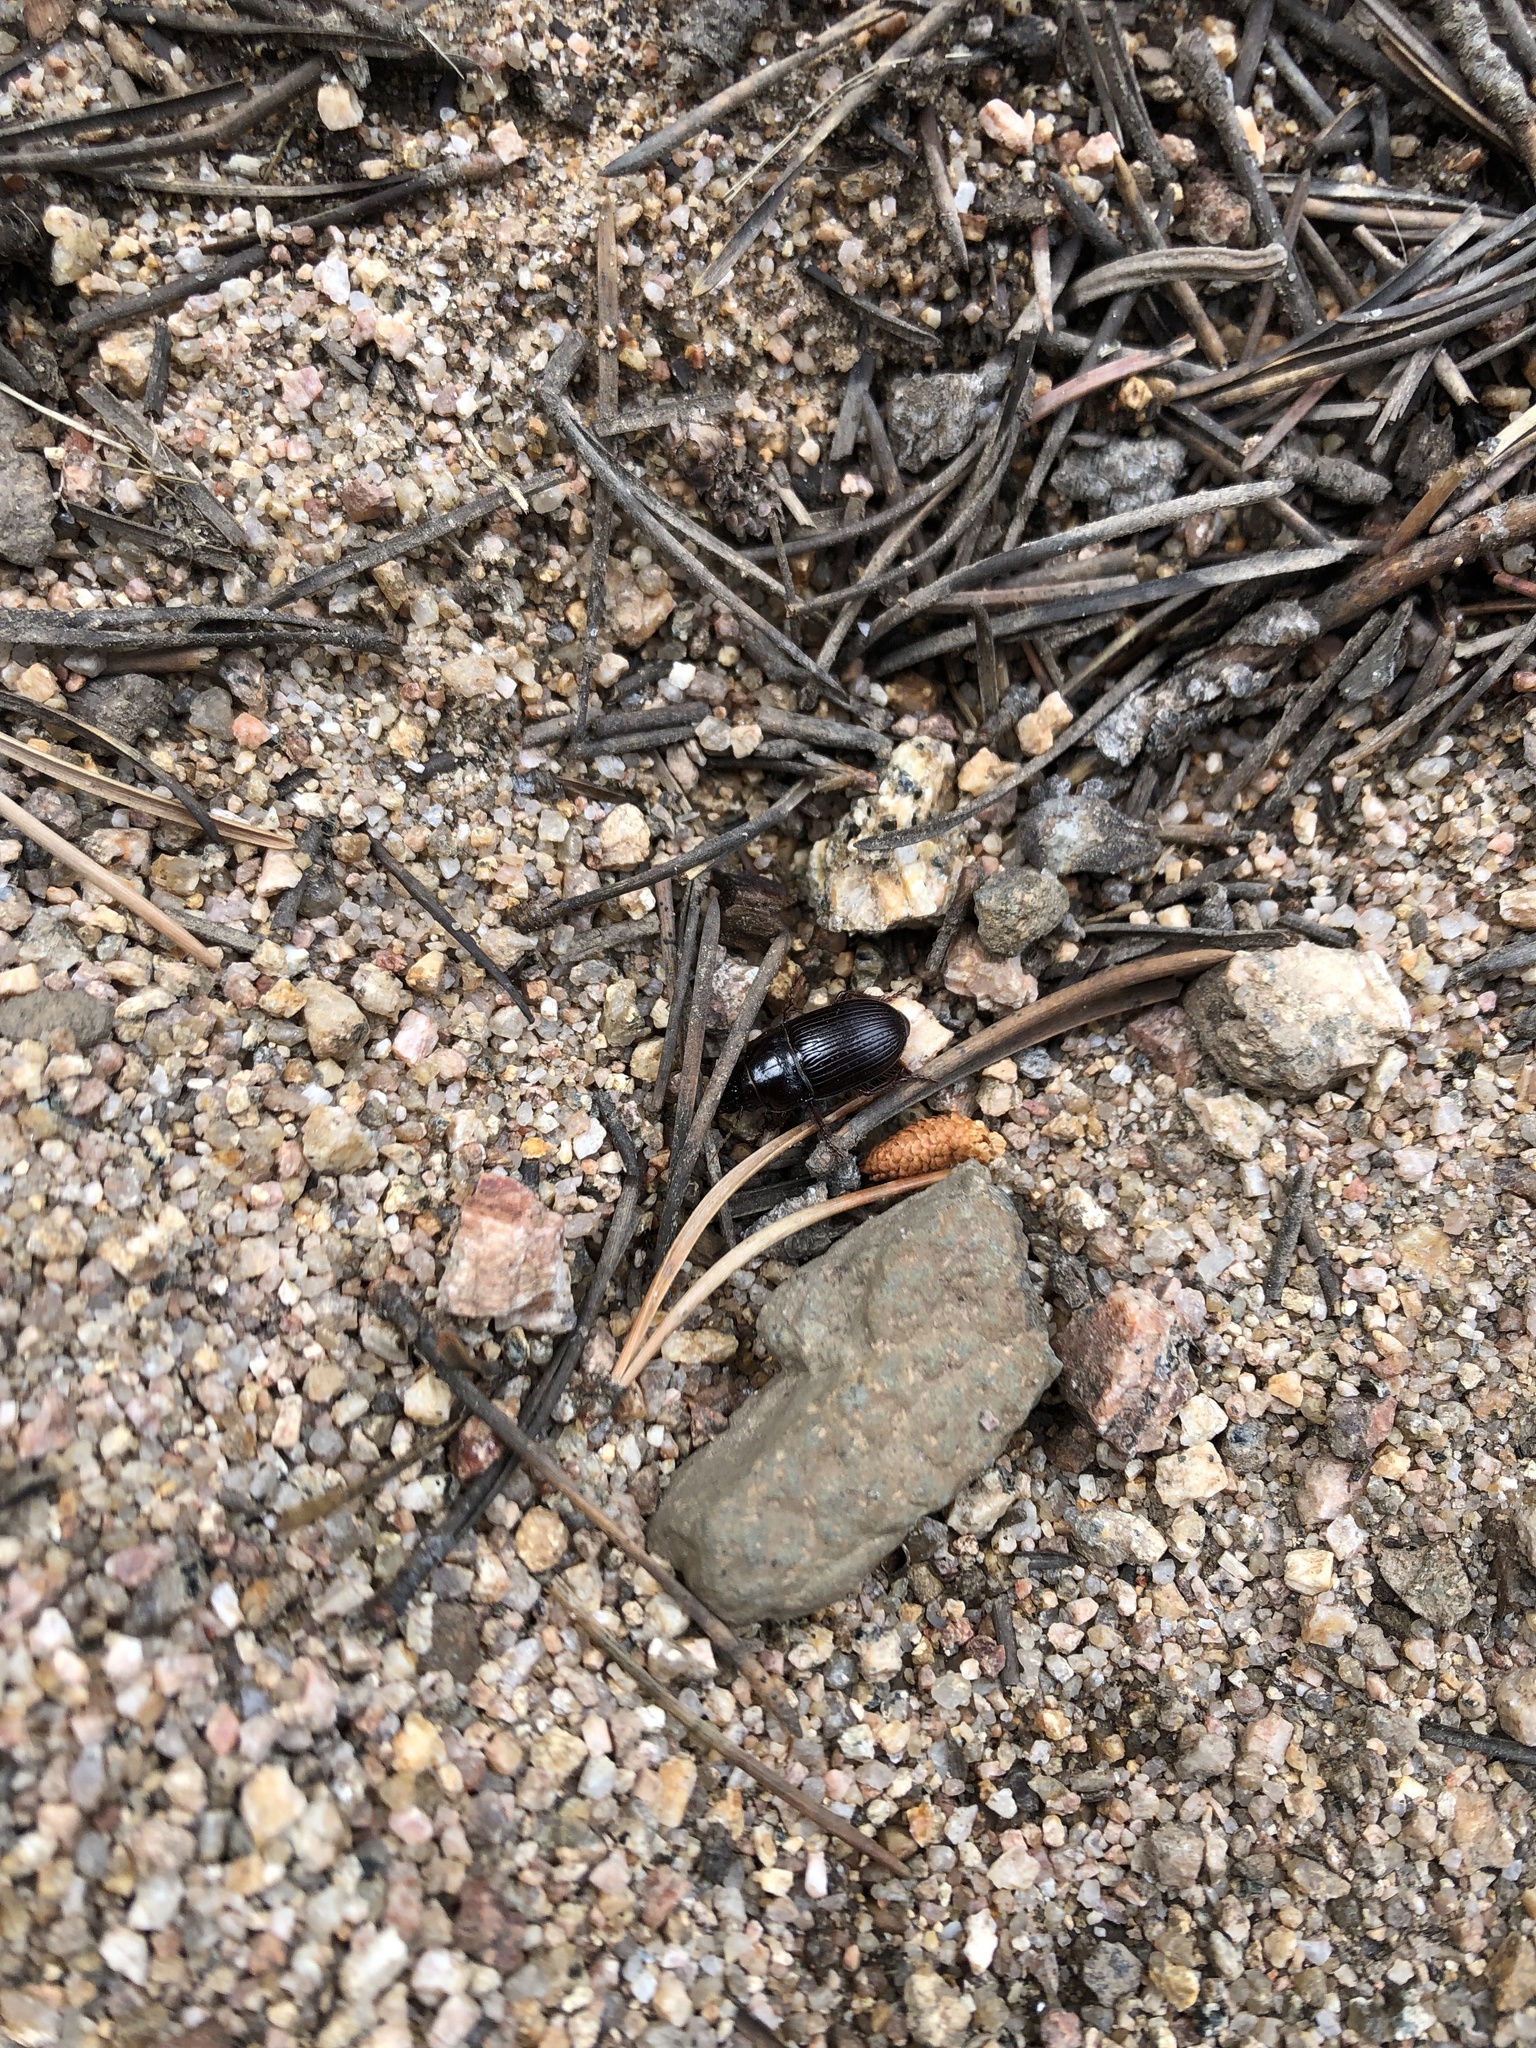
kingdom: Animalia
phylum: Arthropoda
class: Insecta
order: Coleoptera
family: Carabidae
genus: Euryderus
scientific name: Euryderus grossus
